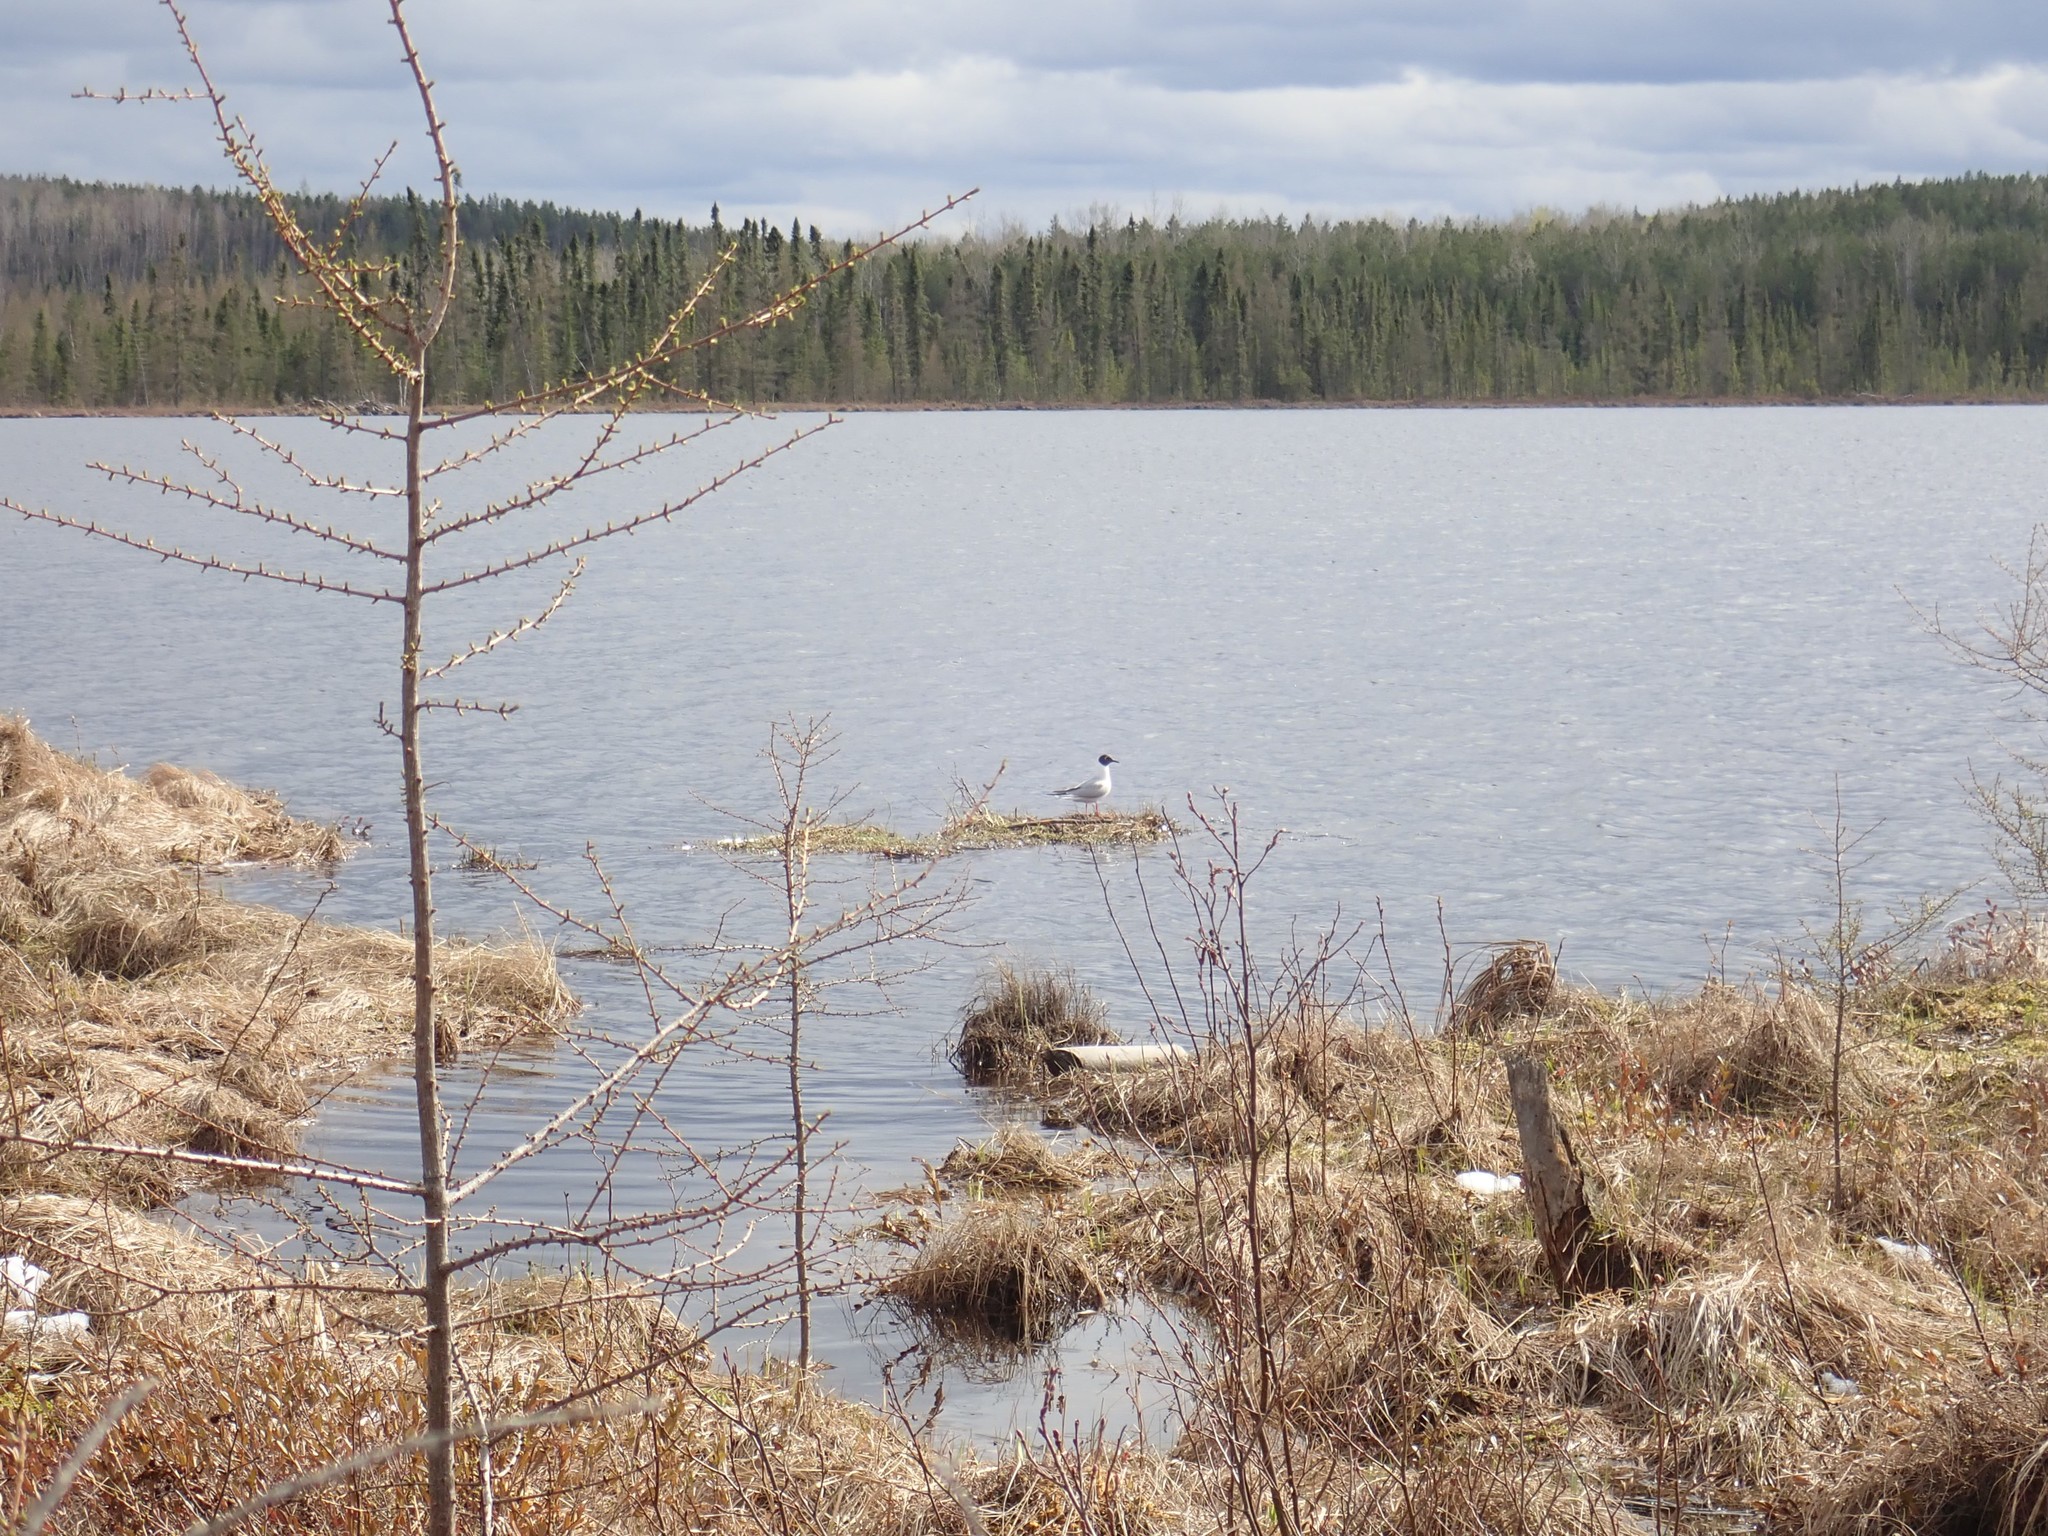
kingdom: Animalia
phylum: Chordata
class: Aves
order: Charadriiformes
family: Laridae
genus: Chroicocephalus
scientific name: Chroicocephalus philadelphia
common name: Bonaparte's gull
